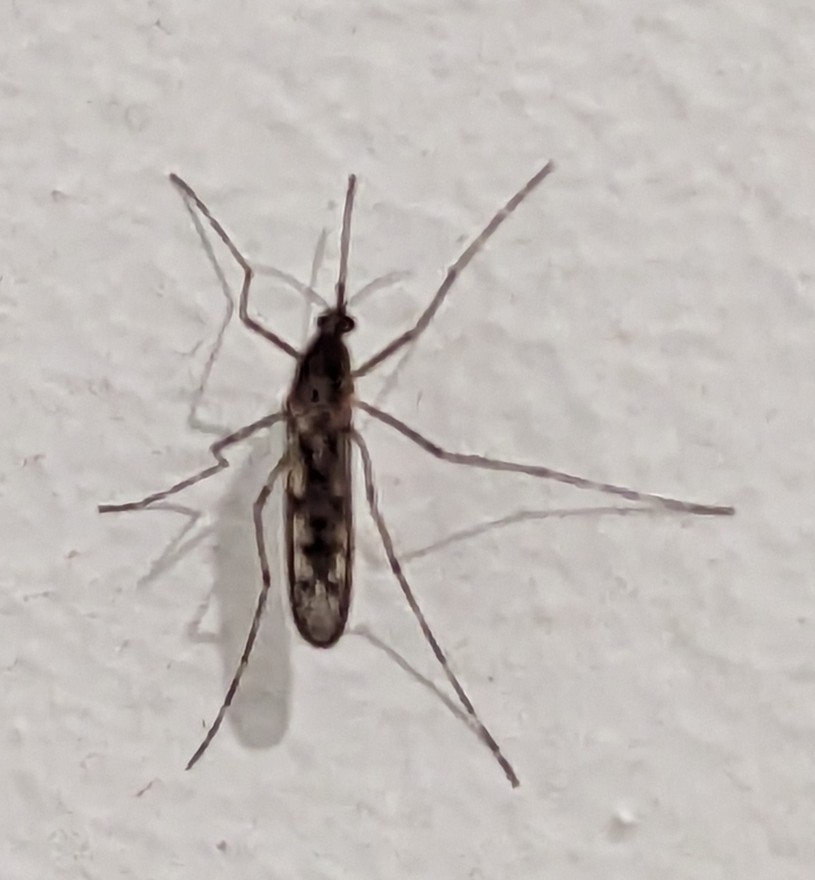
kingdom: Animalia
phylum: Arthropoda
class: Insecta
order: Diptera
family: Culicidae
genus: Culiseta
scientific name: Culiseta annulata
